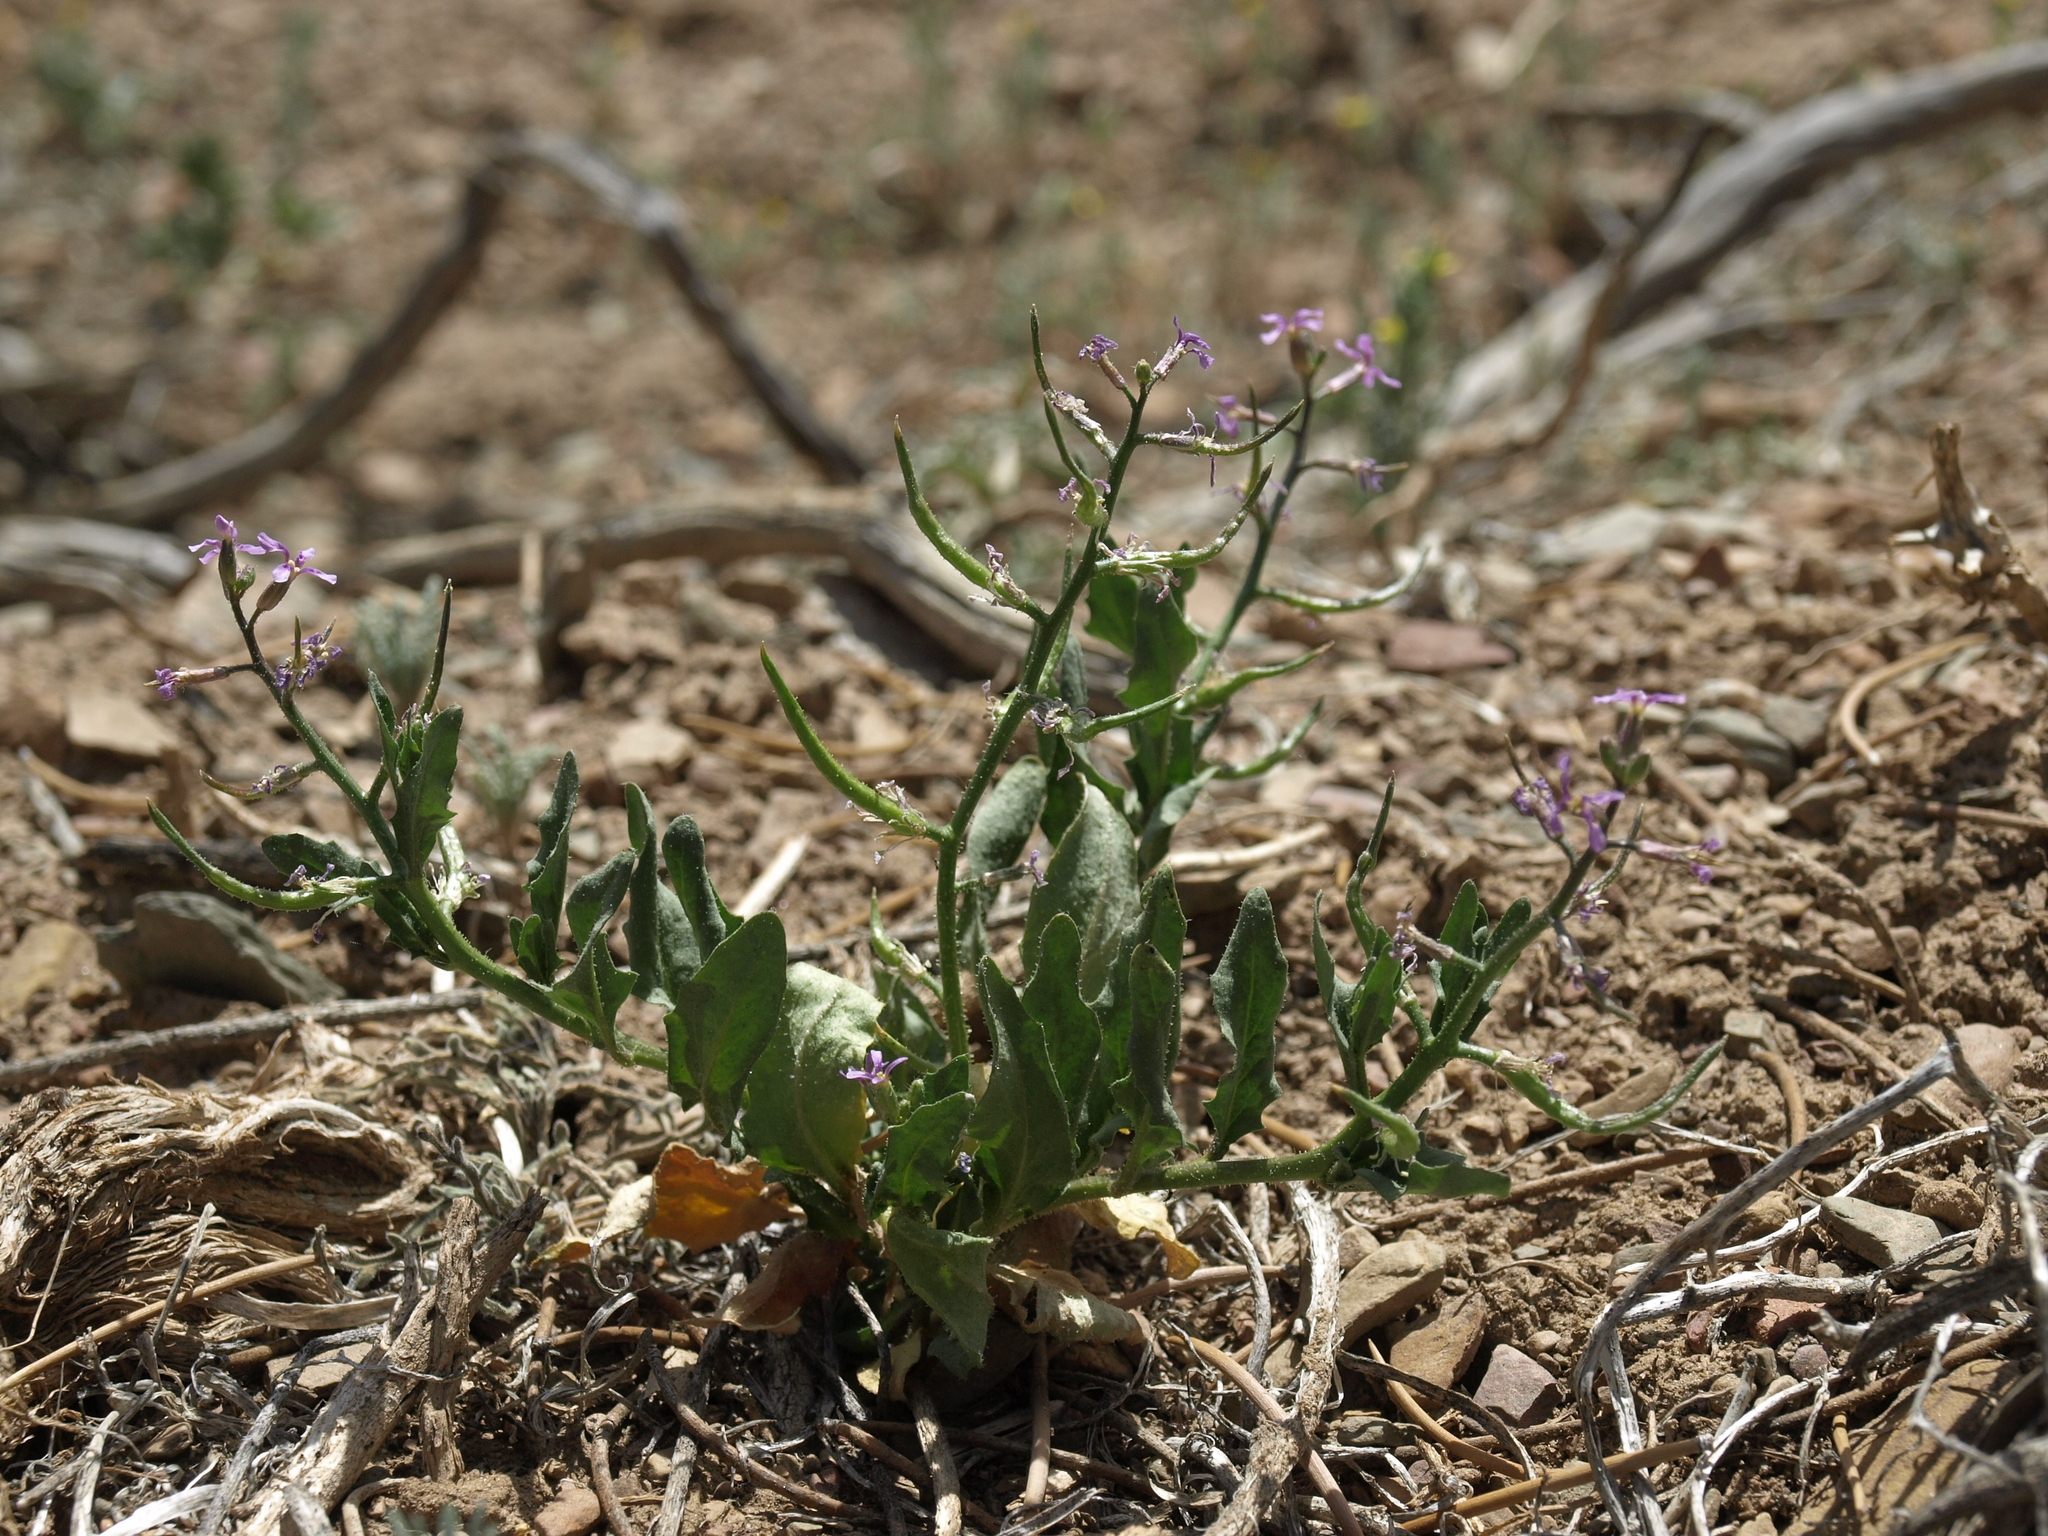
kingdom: Plantae
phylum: Tracheophyta
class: Magnoliopsida
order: Brassicales
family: Brassicaceae
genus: Chorispora
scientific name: Chorispora tenella
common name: Crossflower
